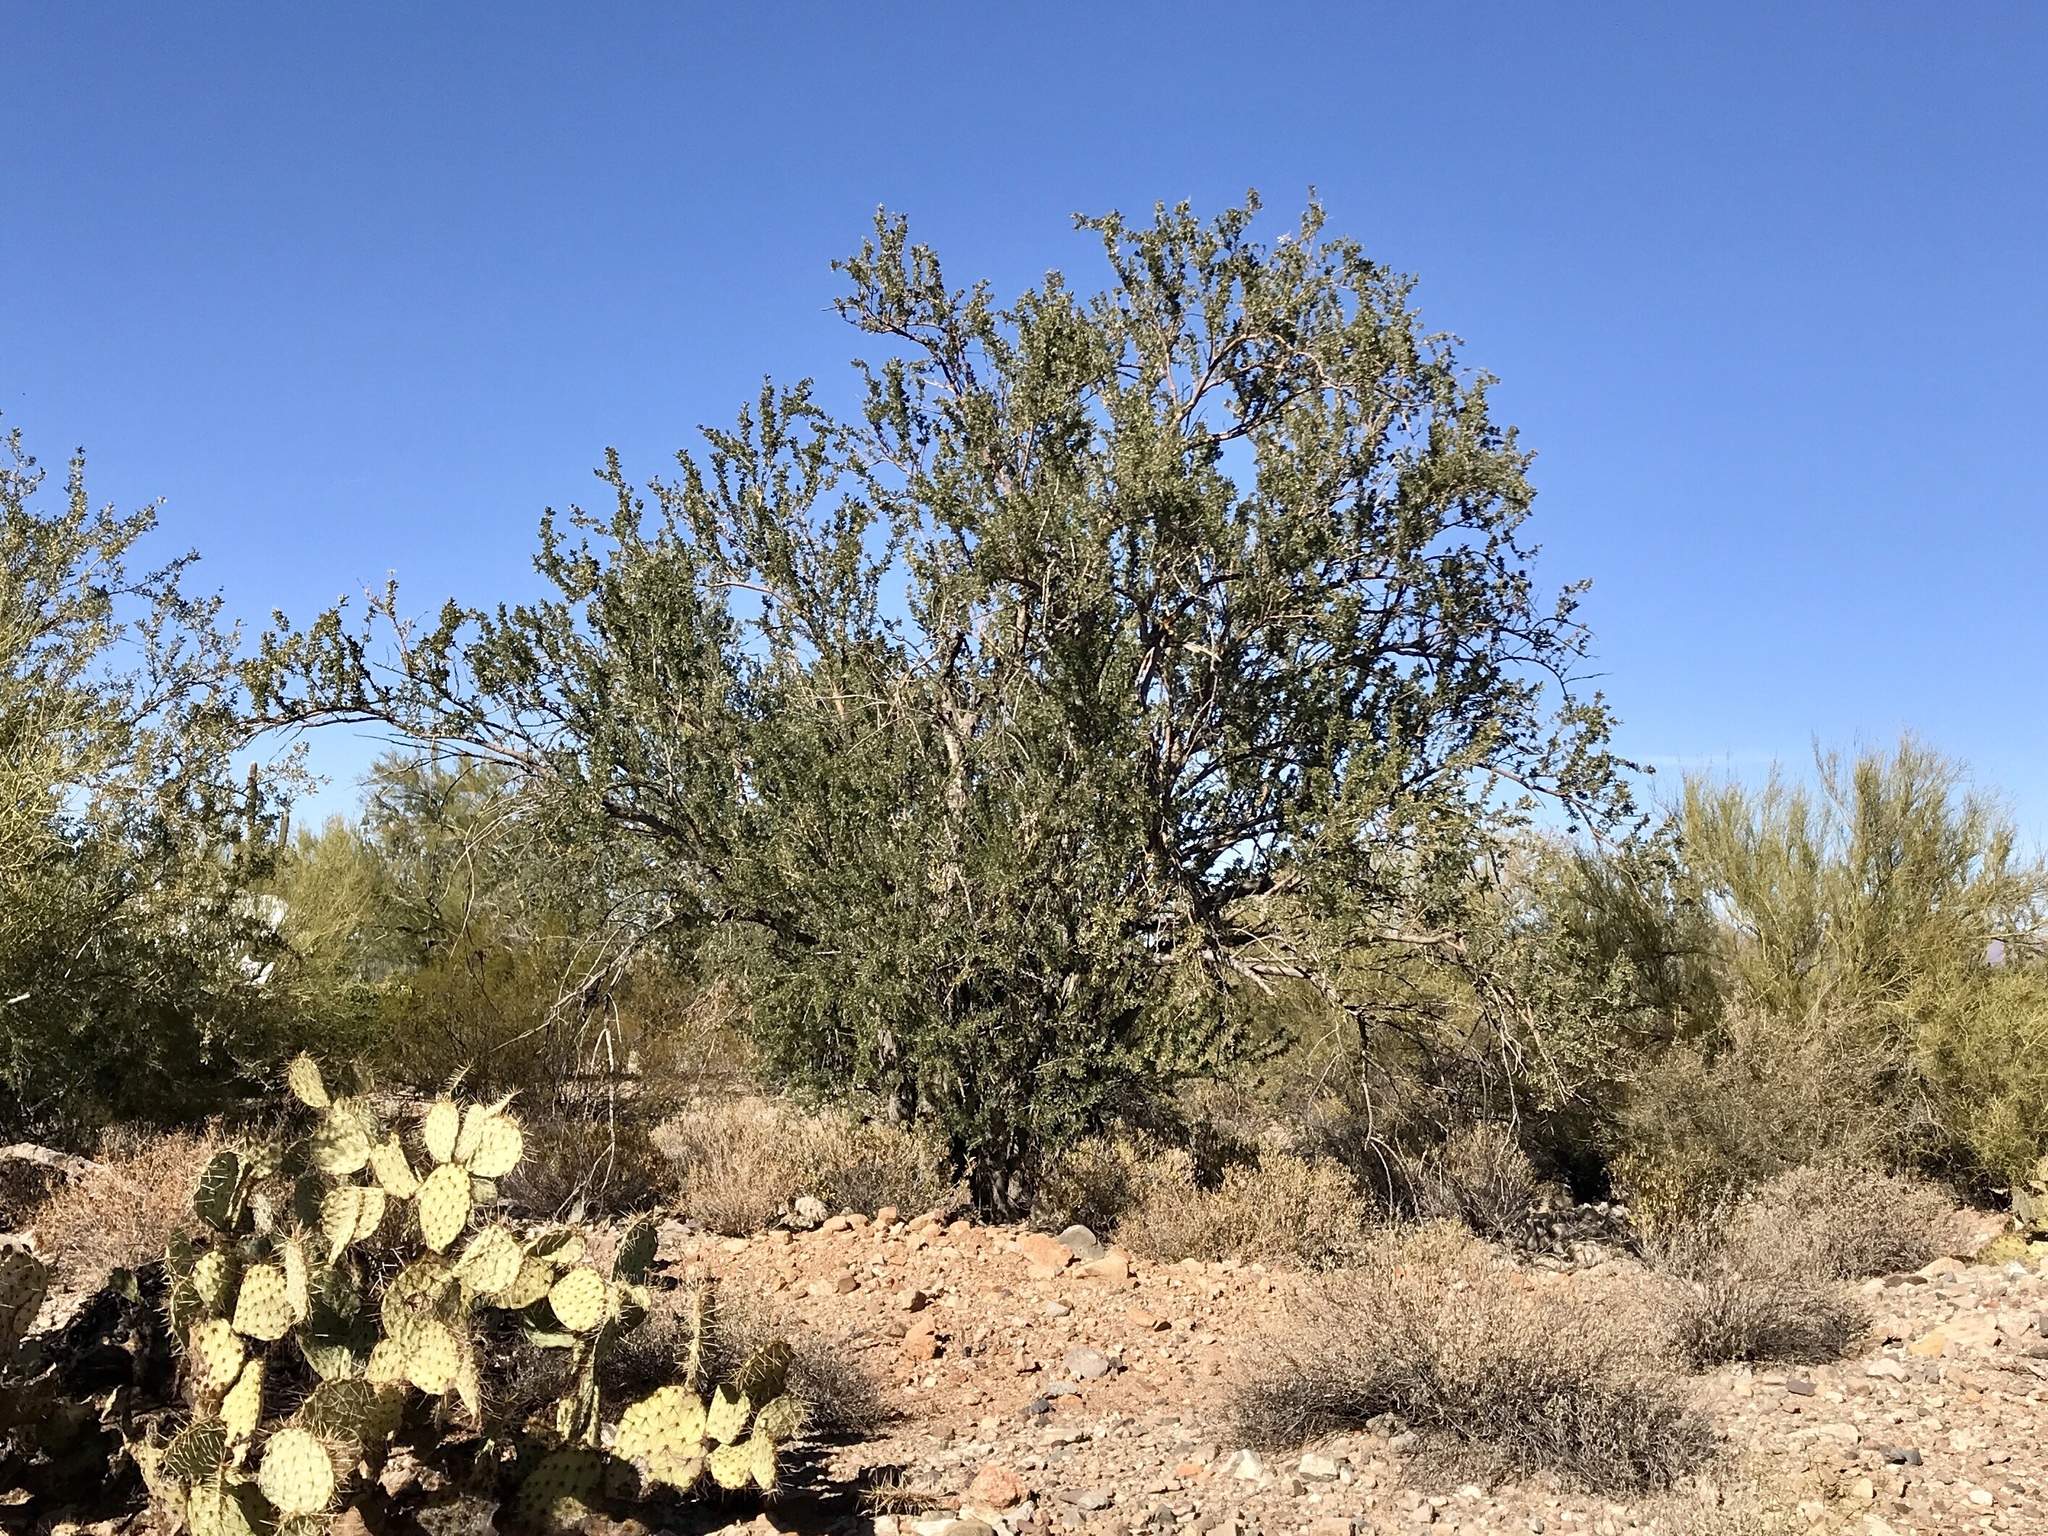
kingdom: Plantae
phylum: Tracheophyta
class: Magnoliopsida
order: Fabales
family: Fabaceae
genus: Olneya
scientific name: Olneya tesota
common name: Desert ironwood
